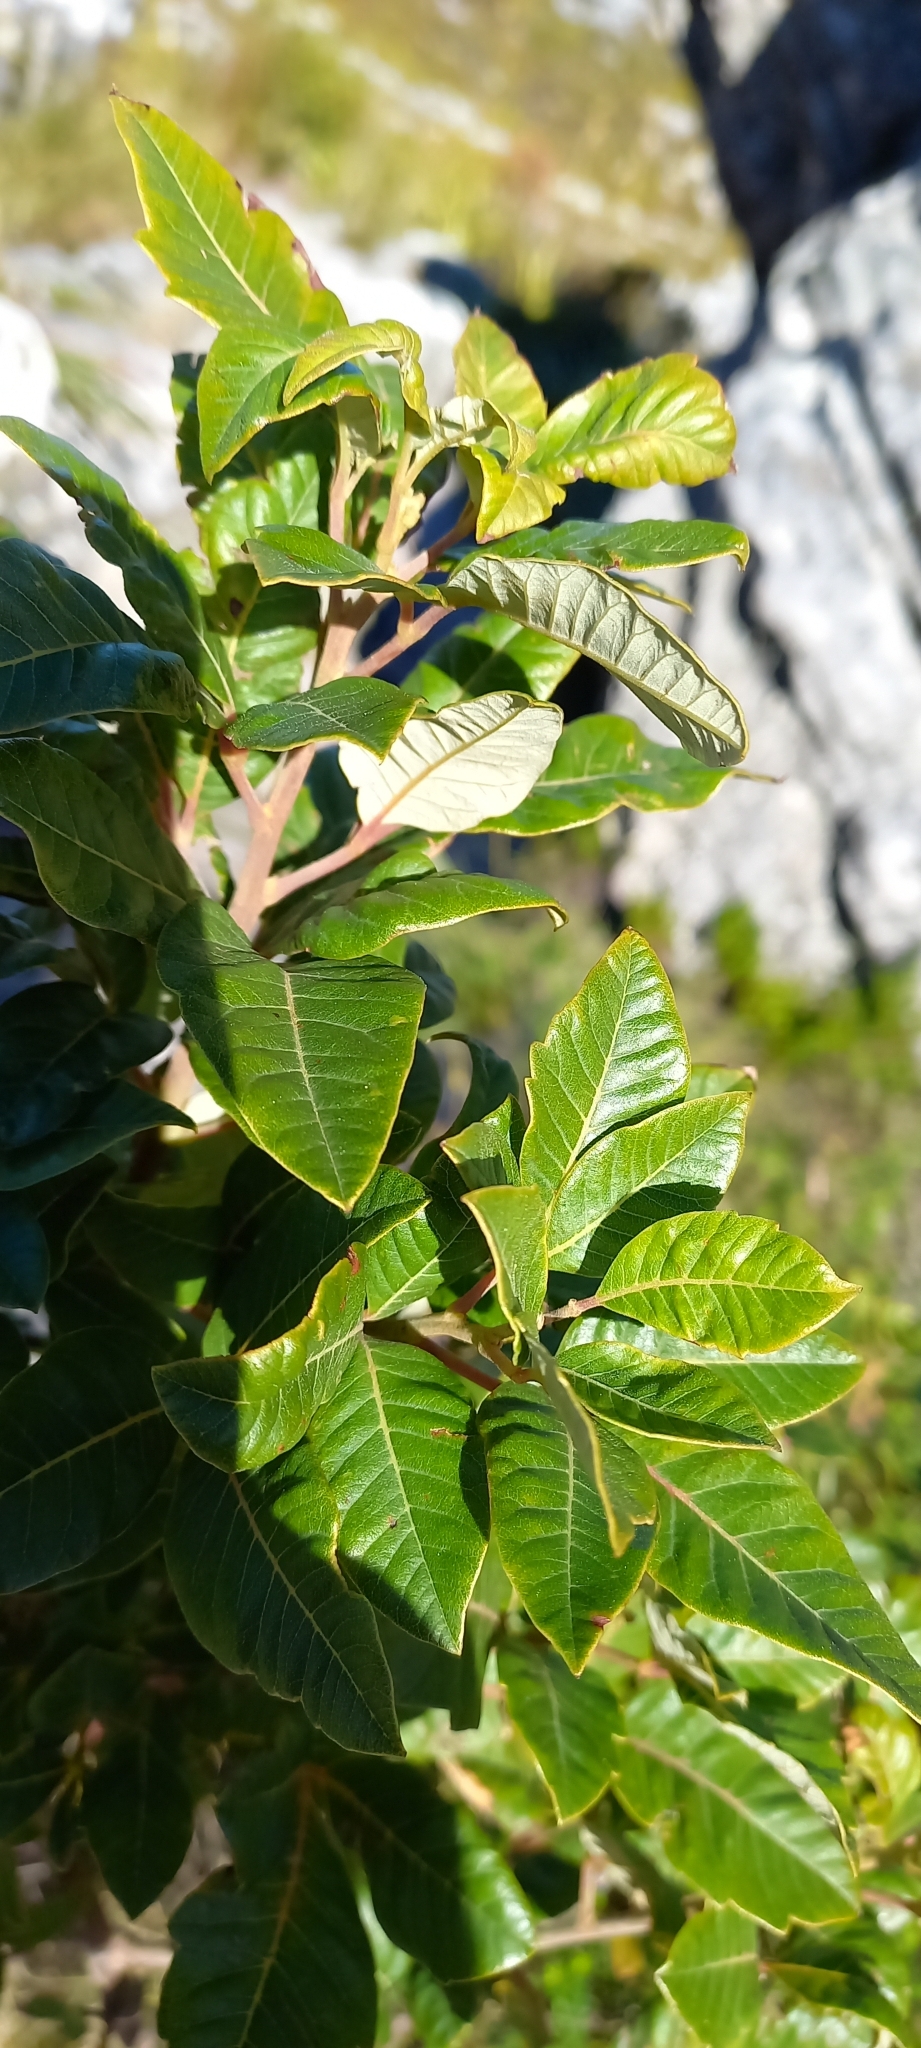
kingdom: Plantae
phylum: Tracheophyta
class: Magnoliopsida
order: Sapindales
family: Anacardiaceae
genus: Searsia
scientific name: Searsia tomentosa
